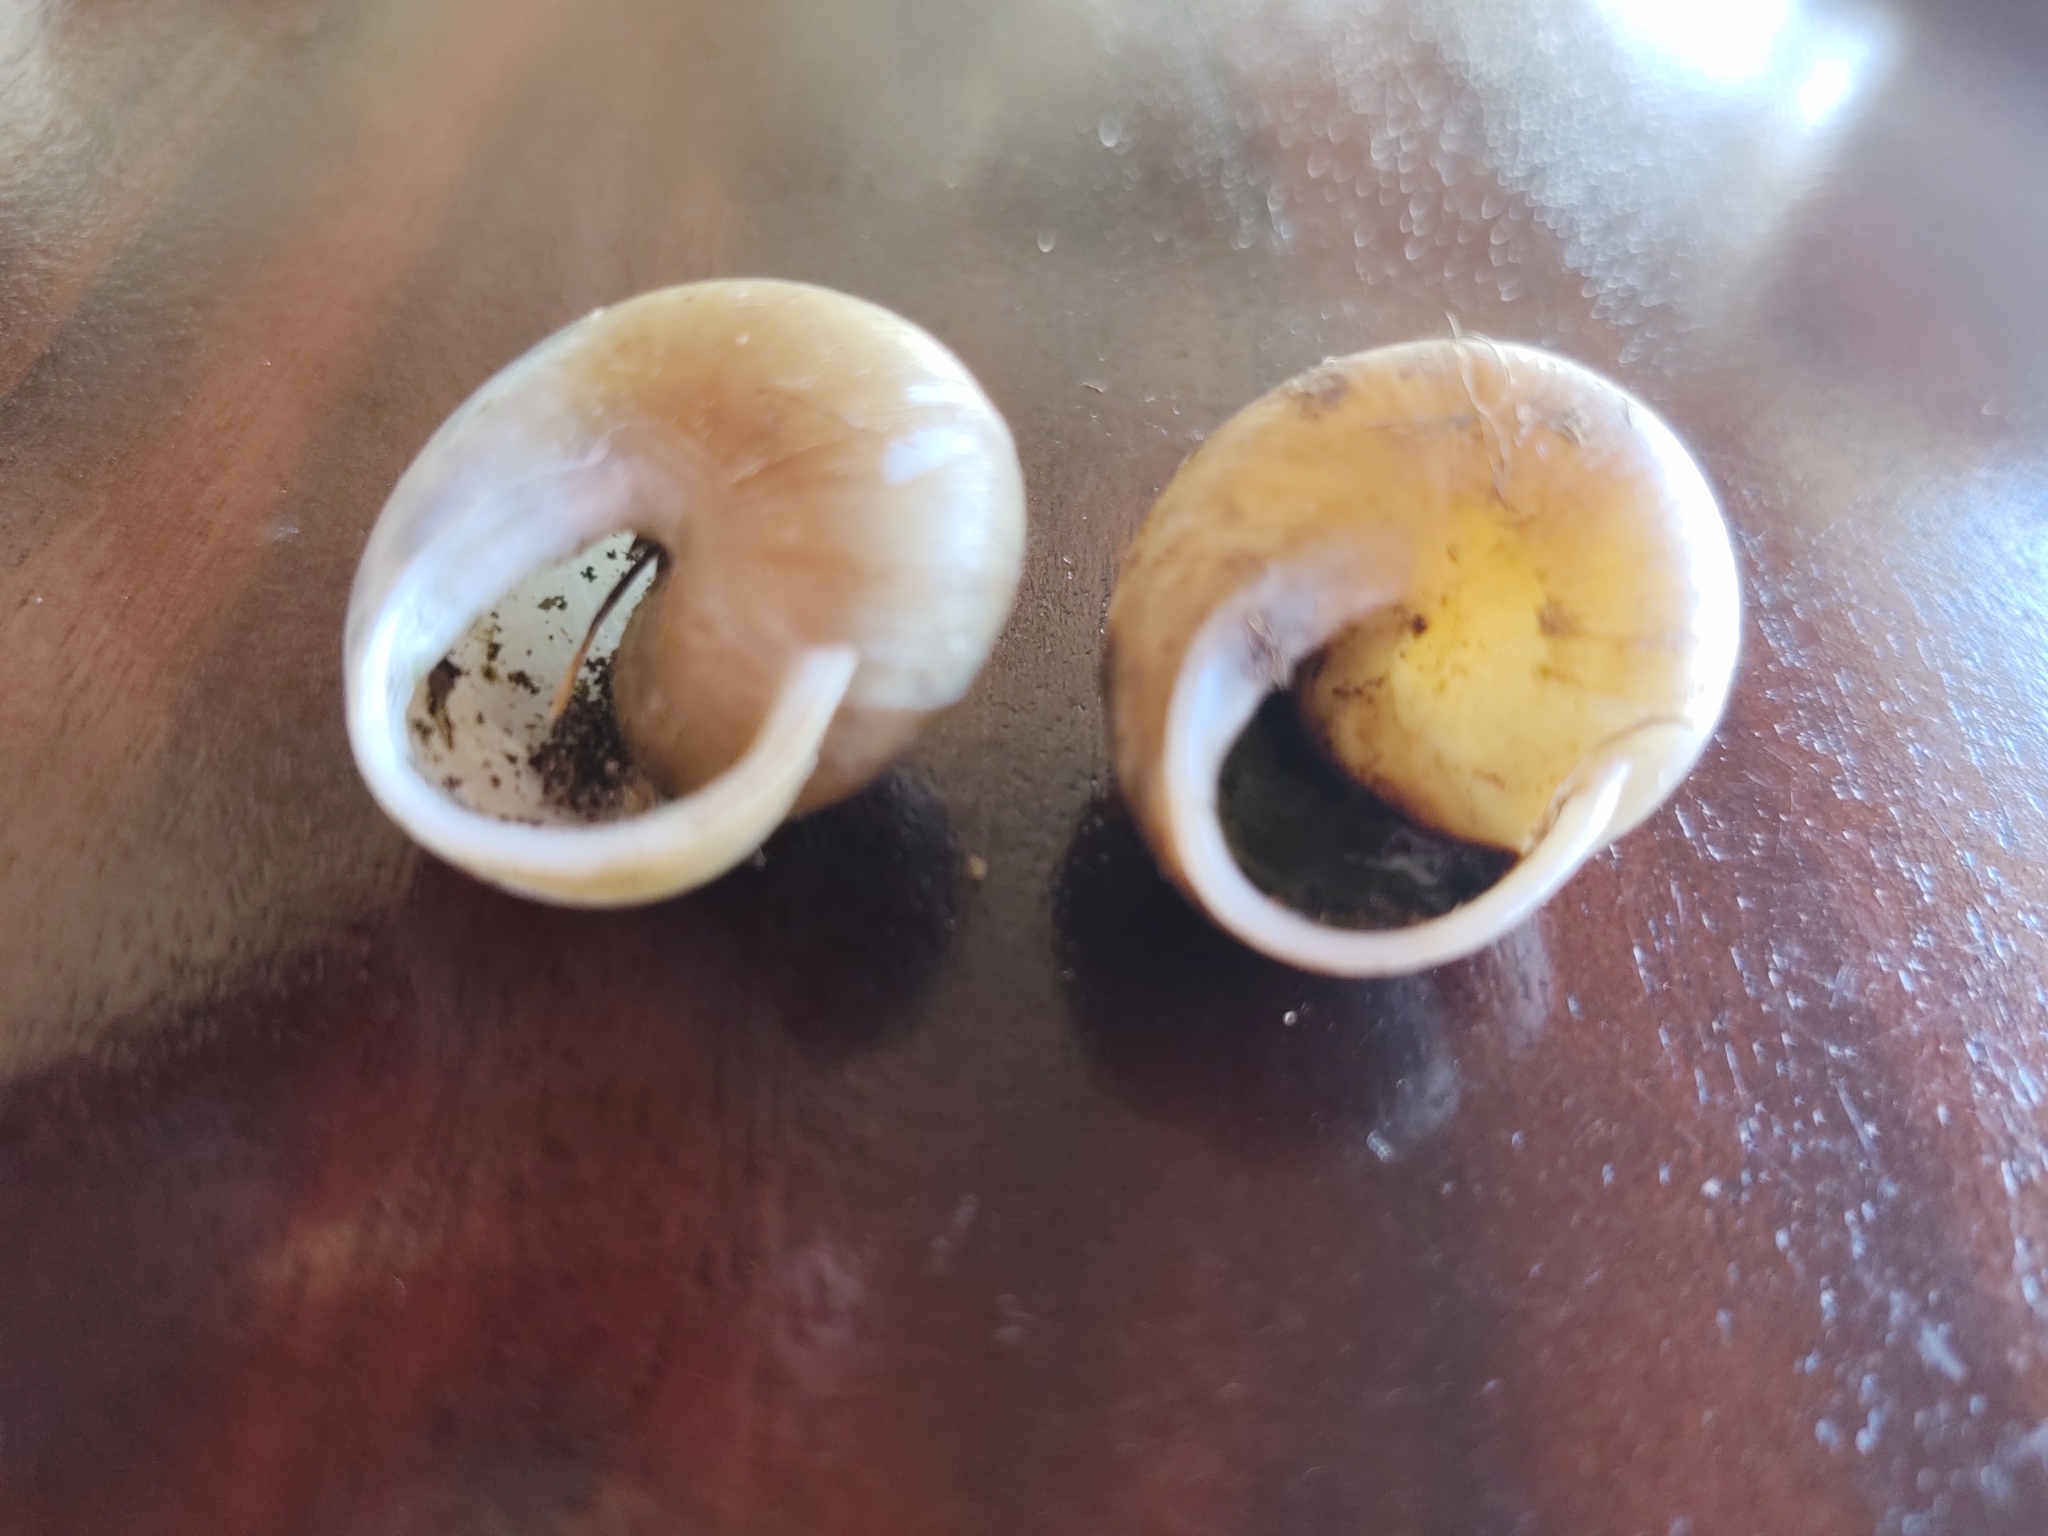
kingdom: Animalia
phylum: Mollusca
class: Gastropoda
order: Stylommatophora
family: Zachrysiidae
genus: Zachrysia
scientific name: Zachrysia provisoria
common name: Garden zachrysia
